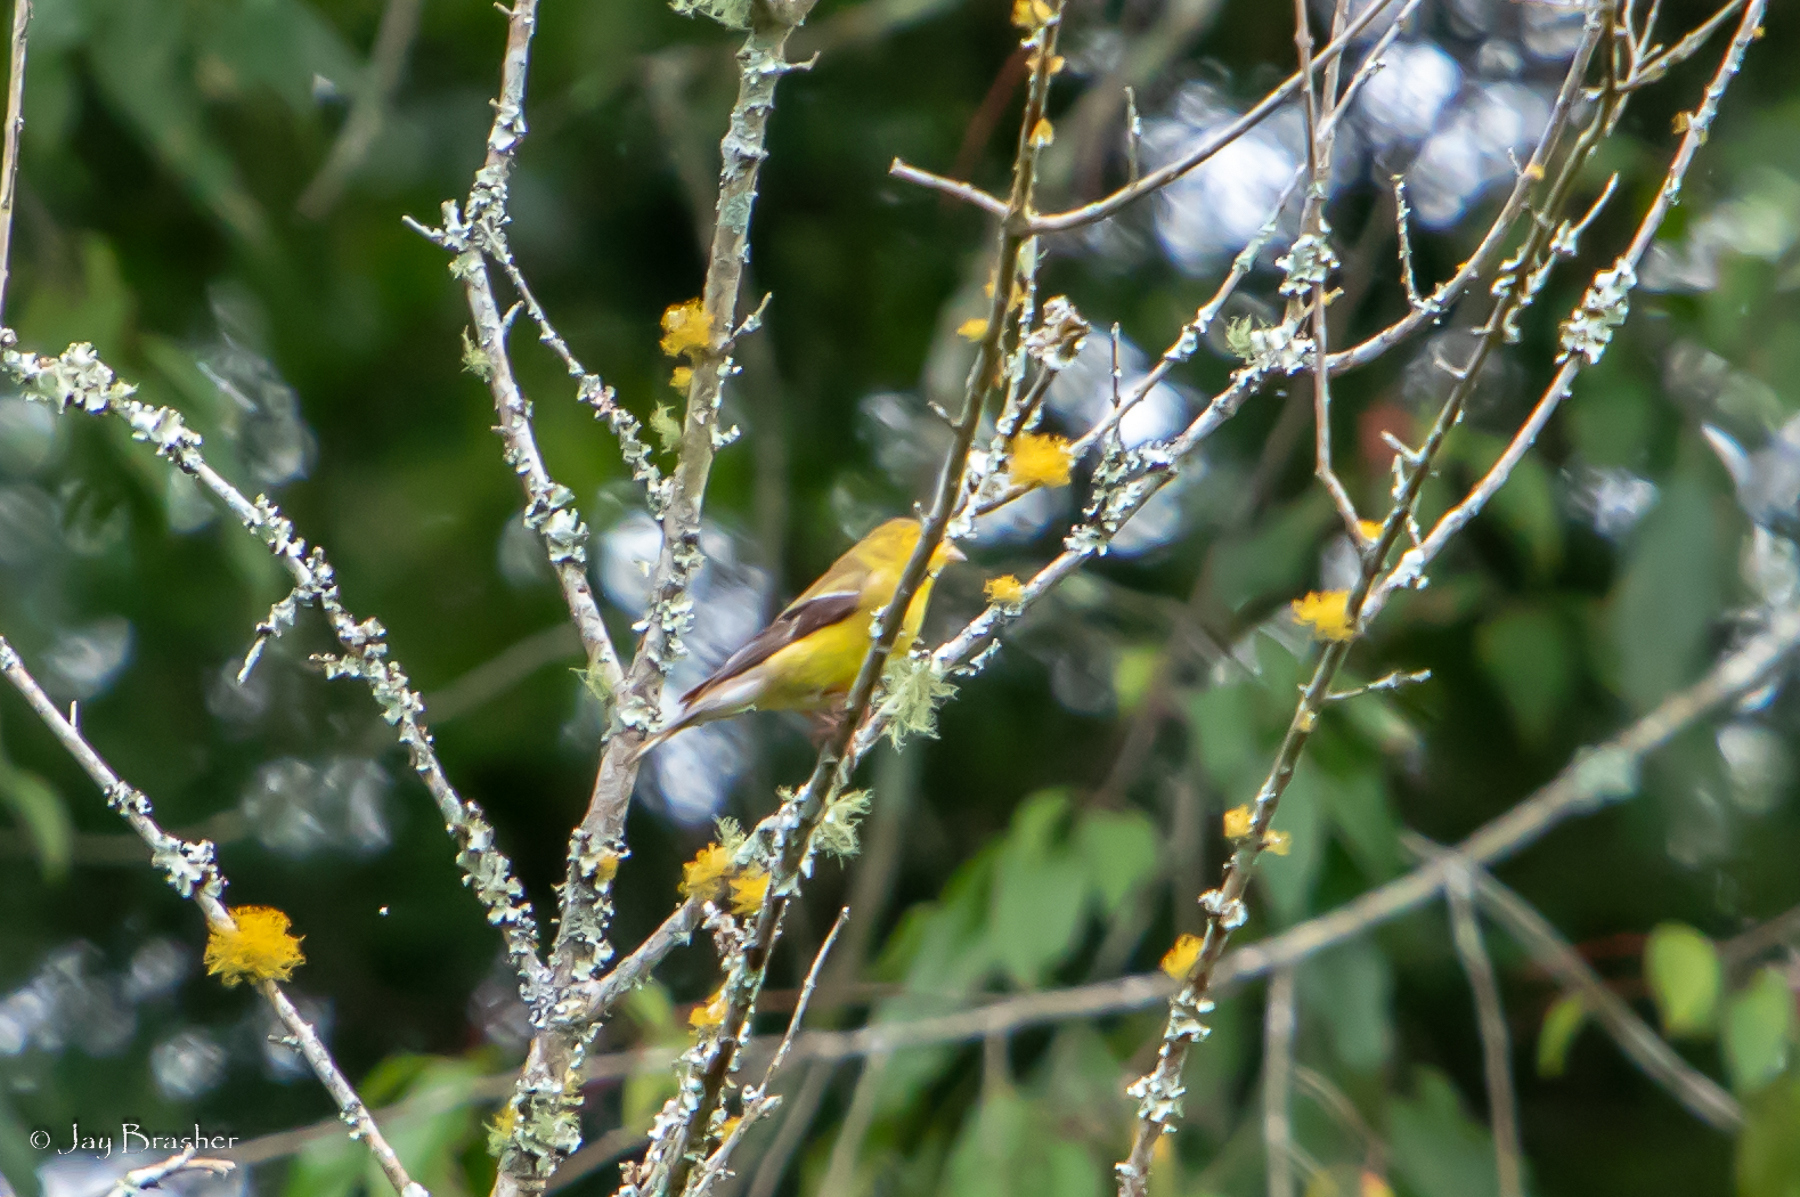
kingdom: Animalia
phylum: Chordata
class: Aves
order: Passeriformes
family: Fringillidae
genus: Spinus
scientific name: Spinus tristis
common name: American goldfinch
